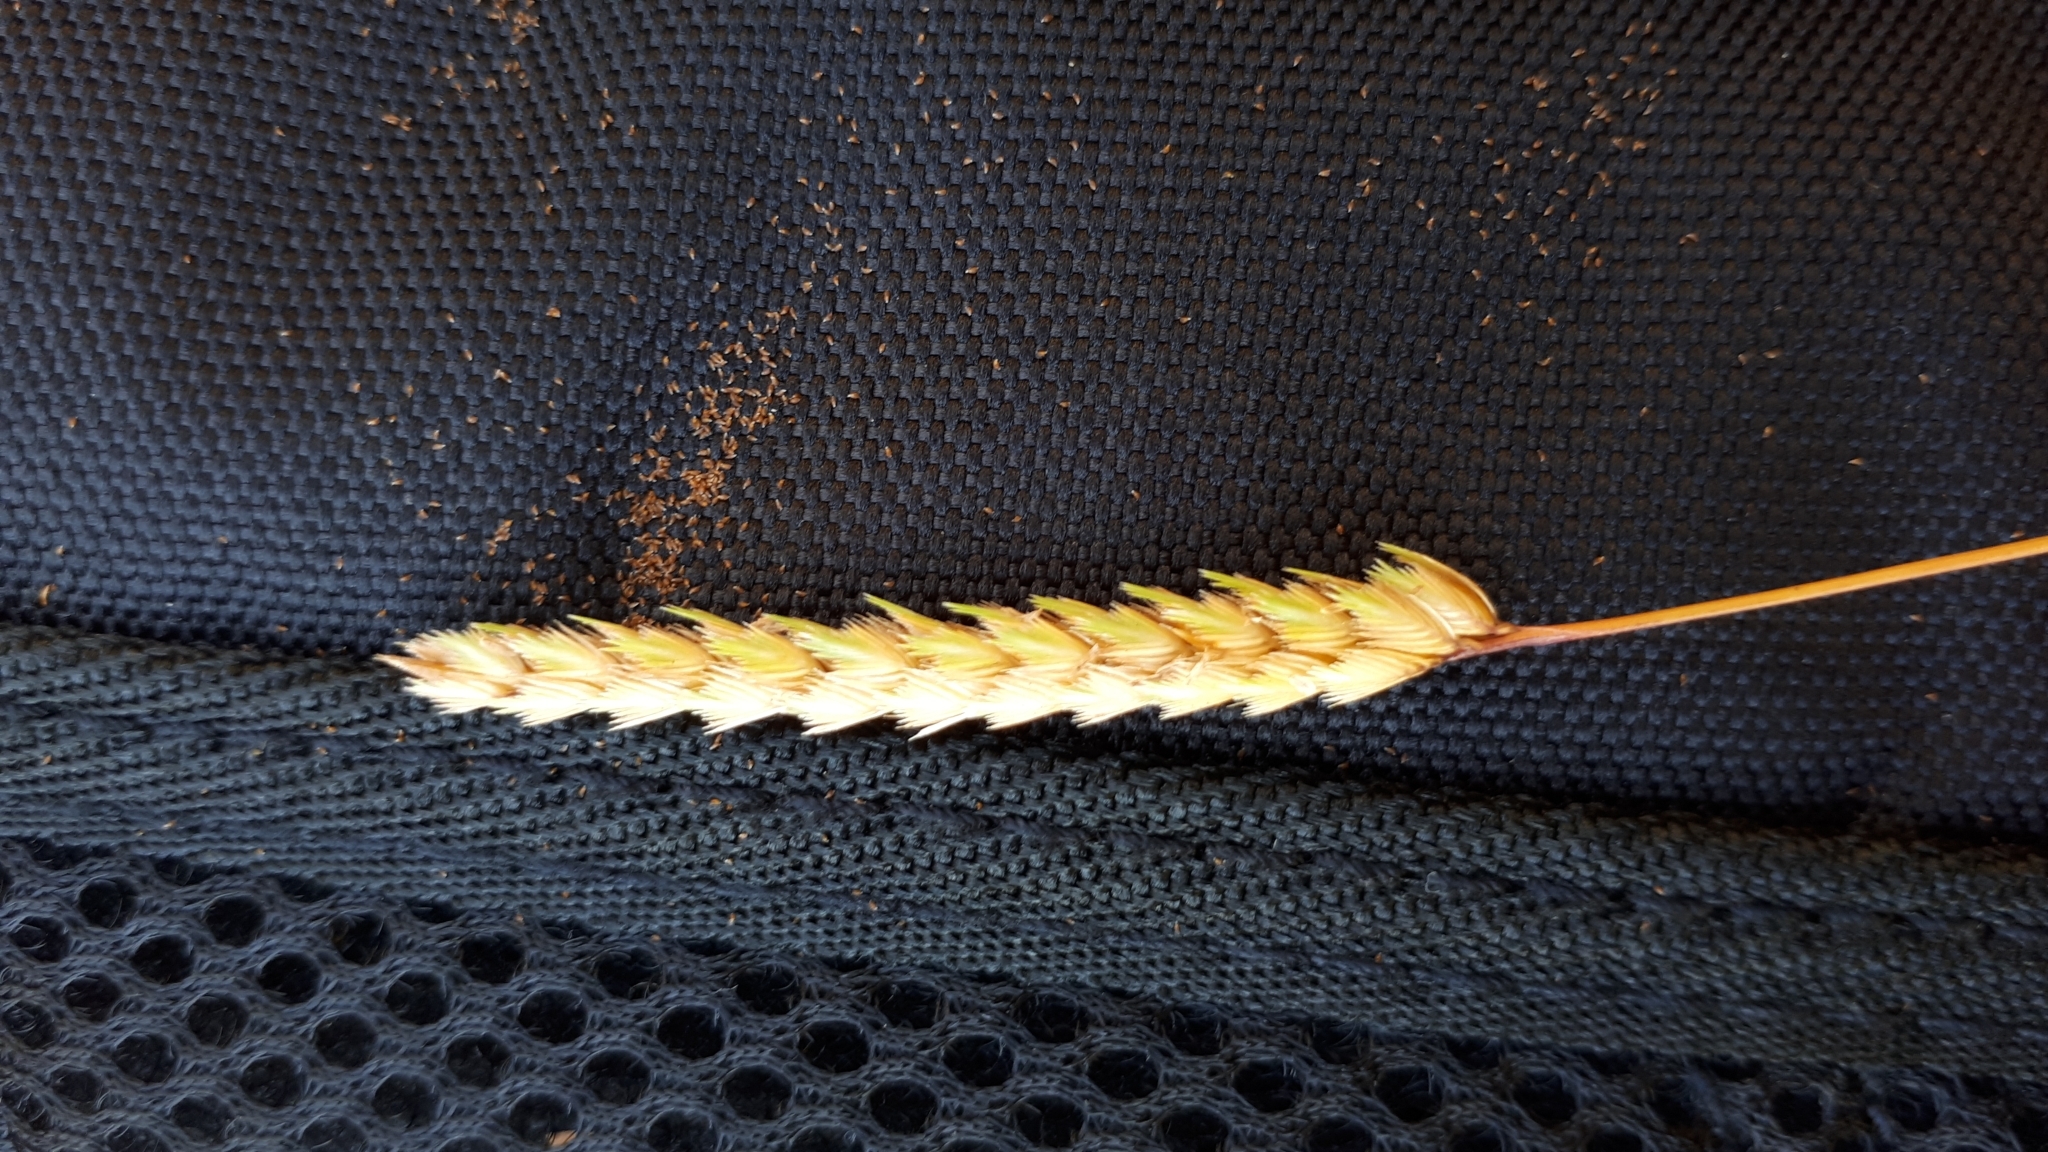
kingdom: Plantae
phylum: Tracheophyta
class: Liliopsida
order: Poales
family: Poaceae
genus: Cynosurus
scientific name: Cynosurus cristatus
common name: Crested dog's-tail
